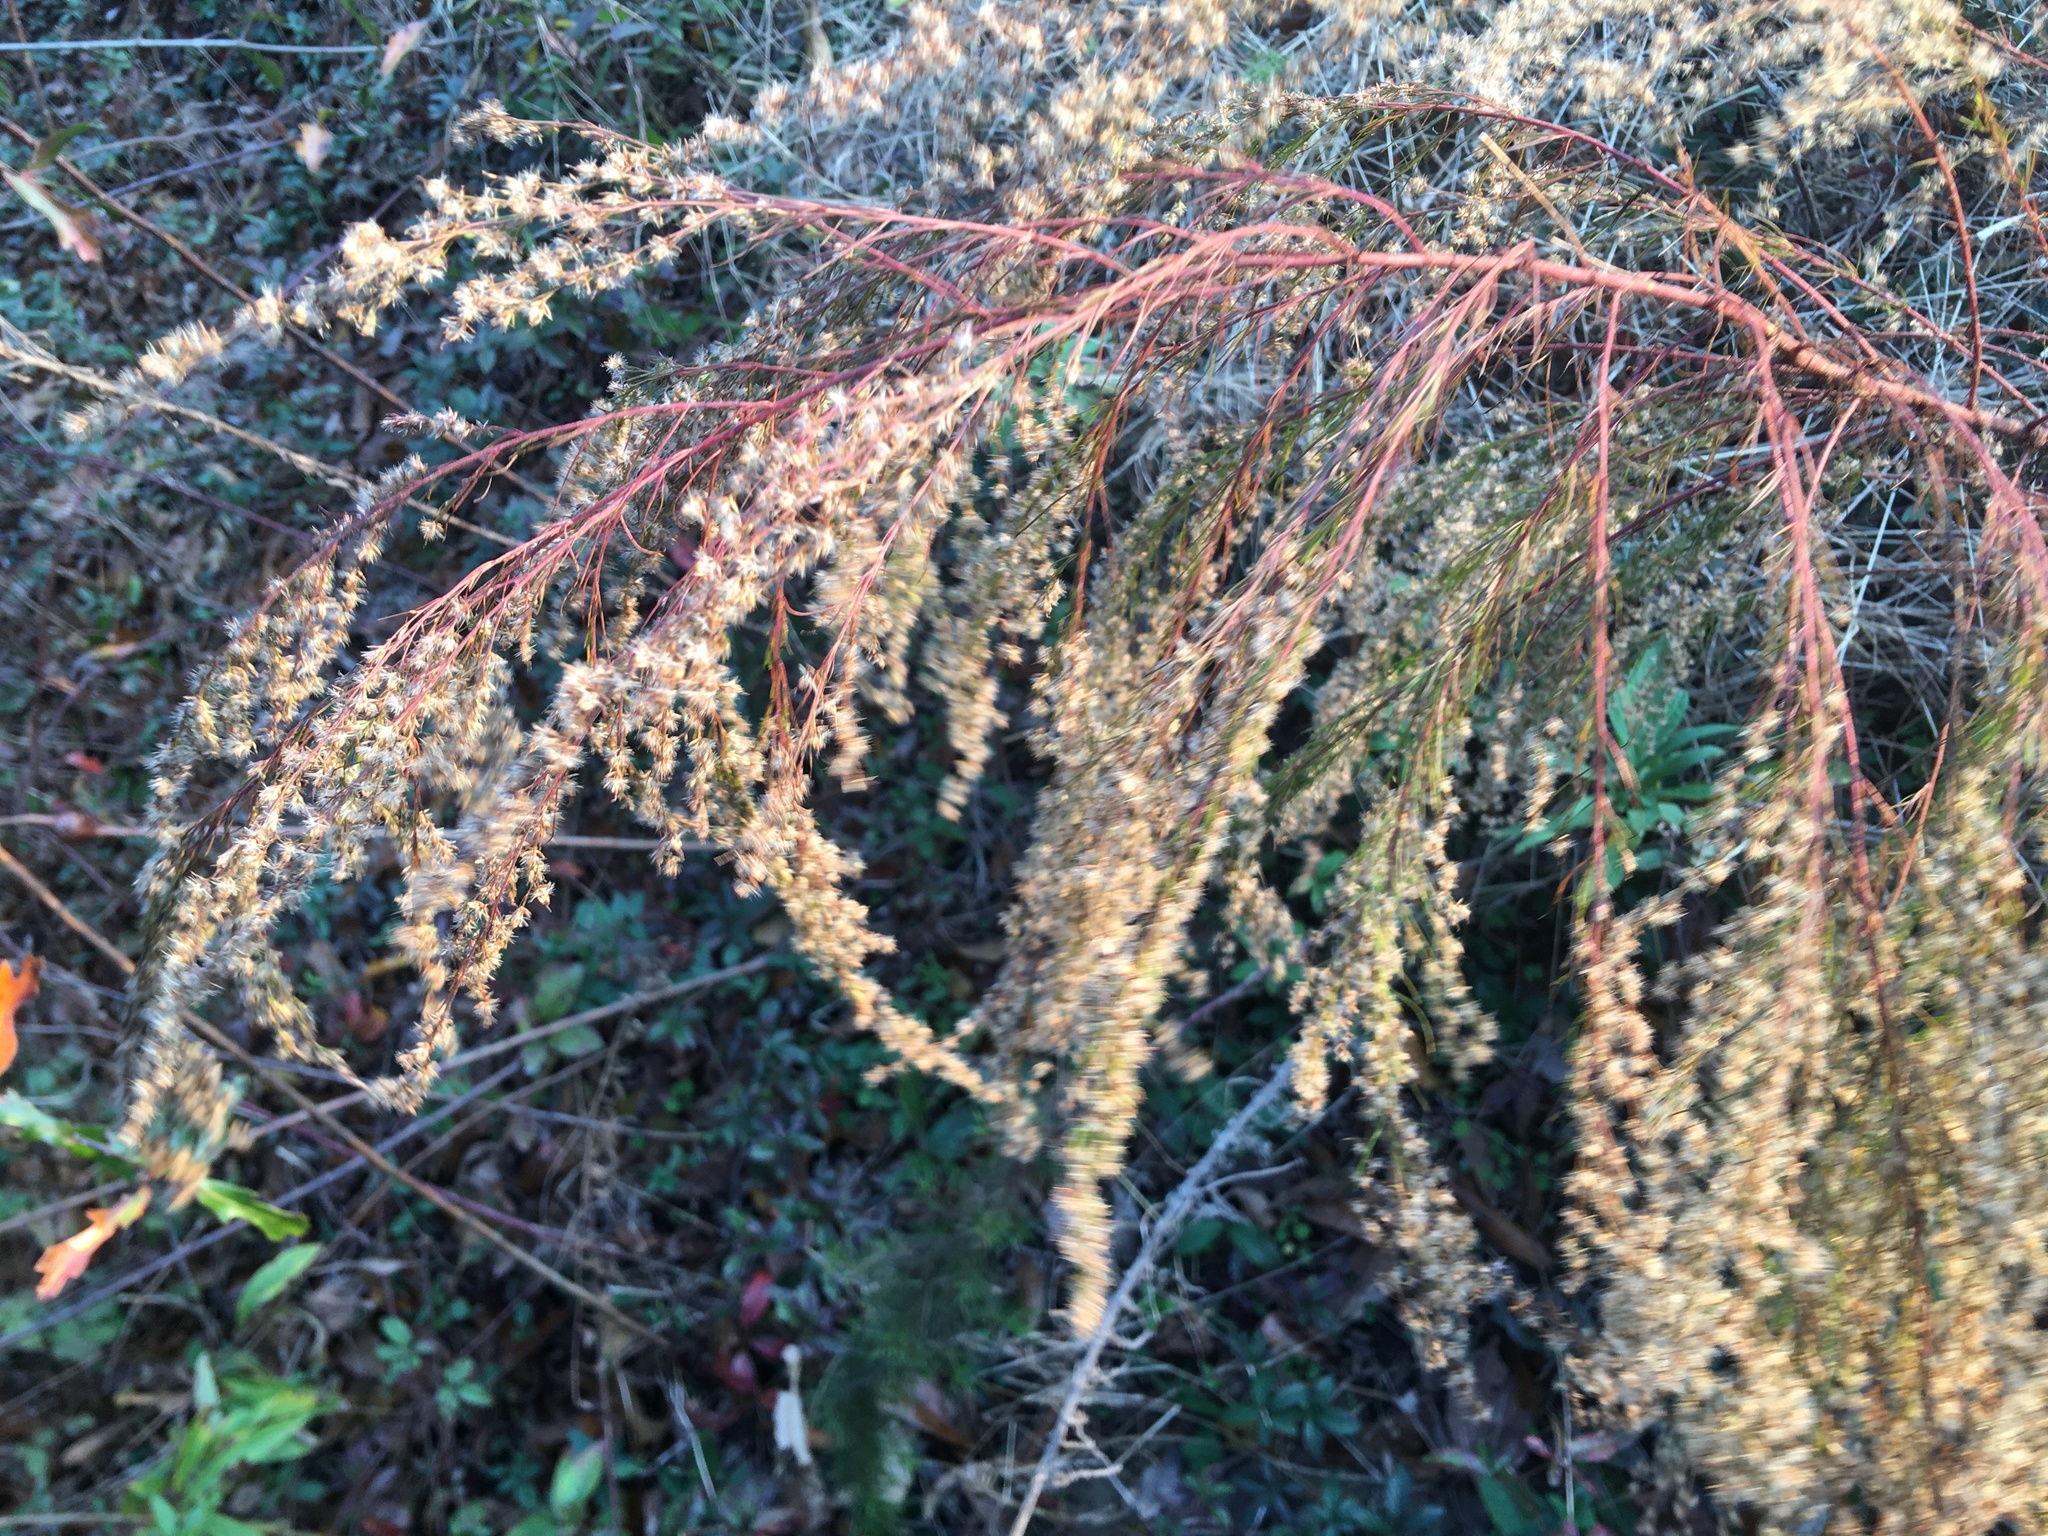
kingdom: Plantae
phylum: Tracheophyta
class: Magnoliopsida
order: Asterales
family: Asteraceae
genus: Eupatorium
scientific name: Eupatorium capillifolium
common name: Dog-fennel
